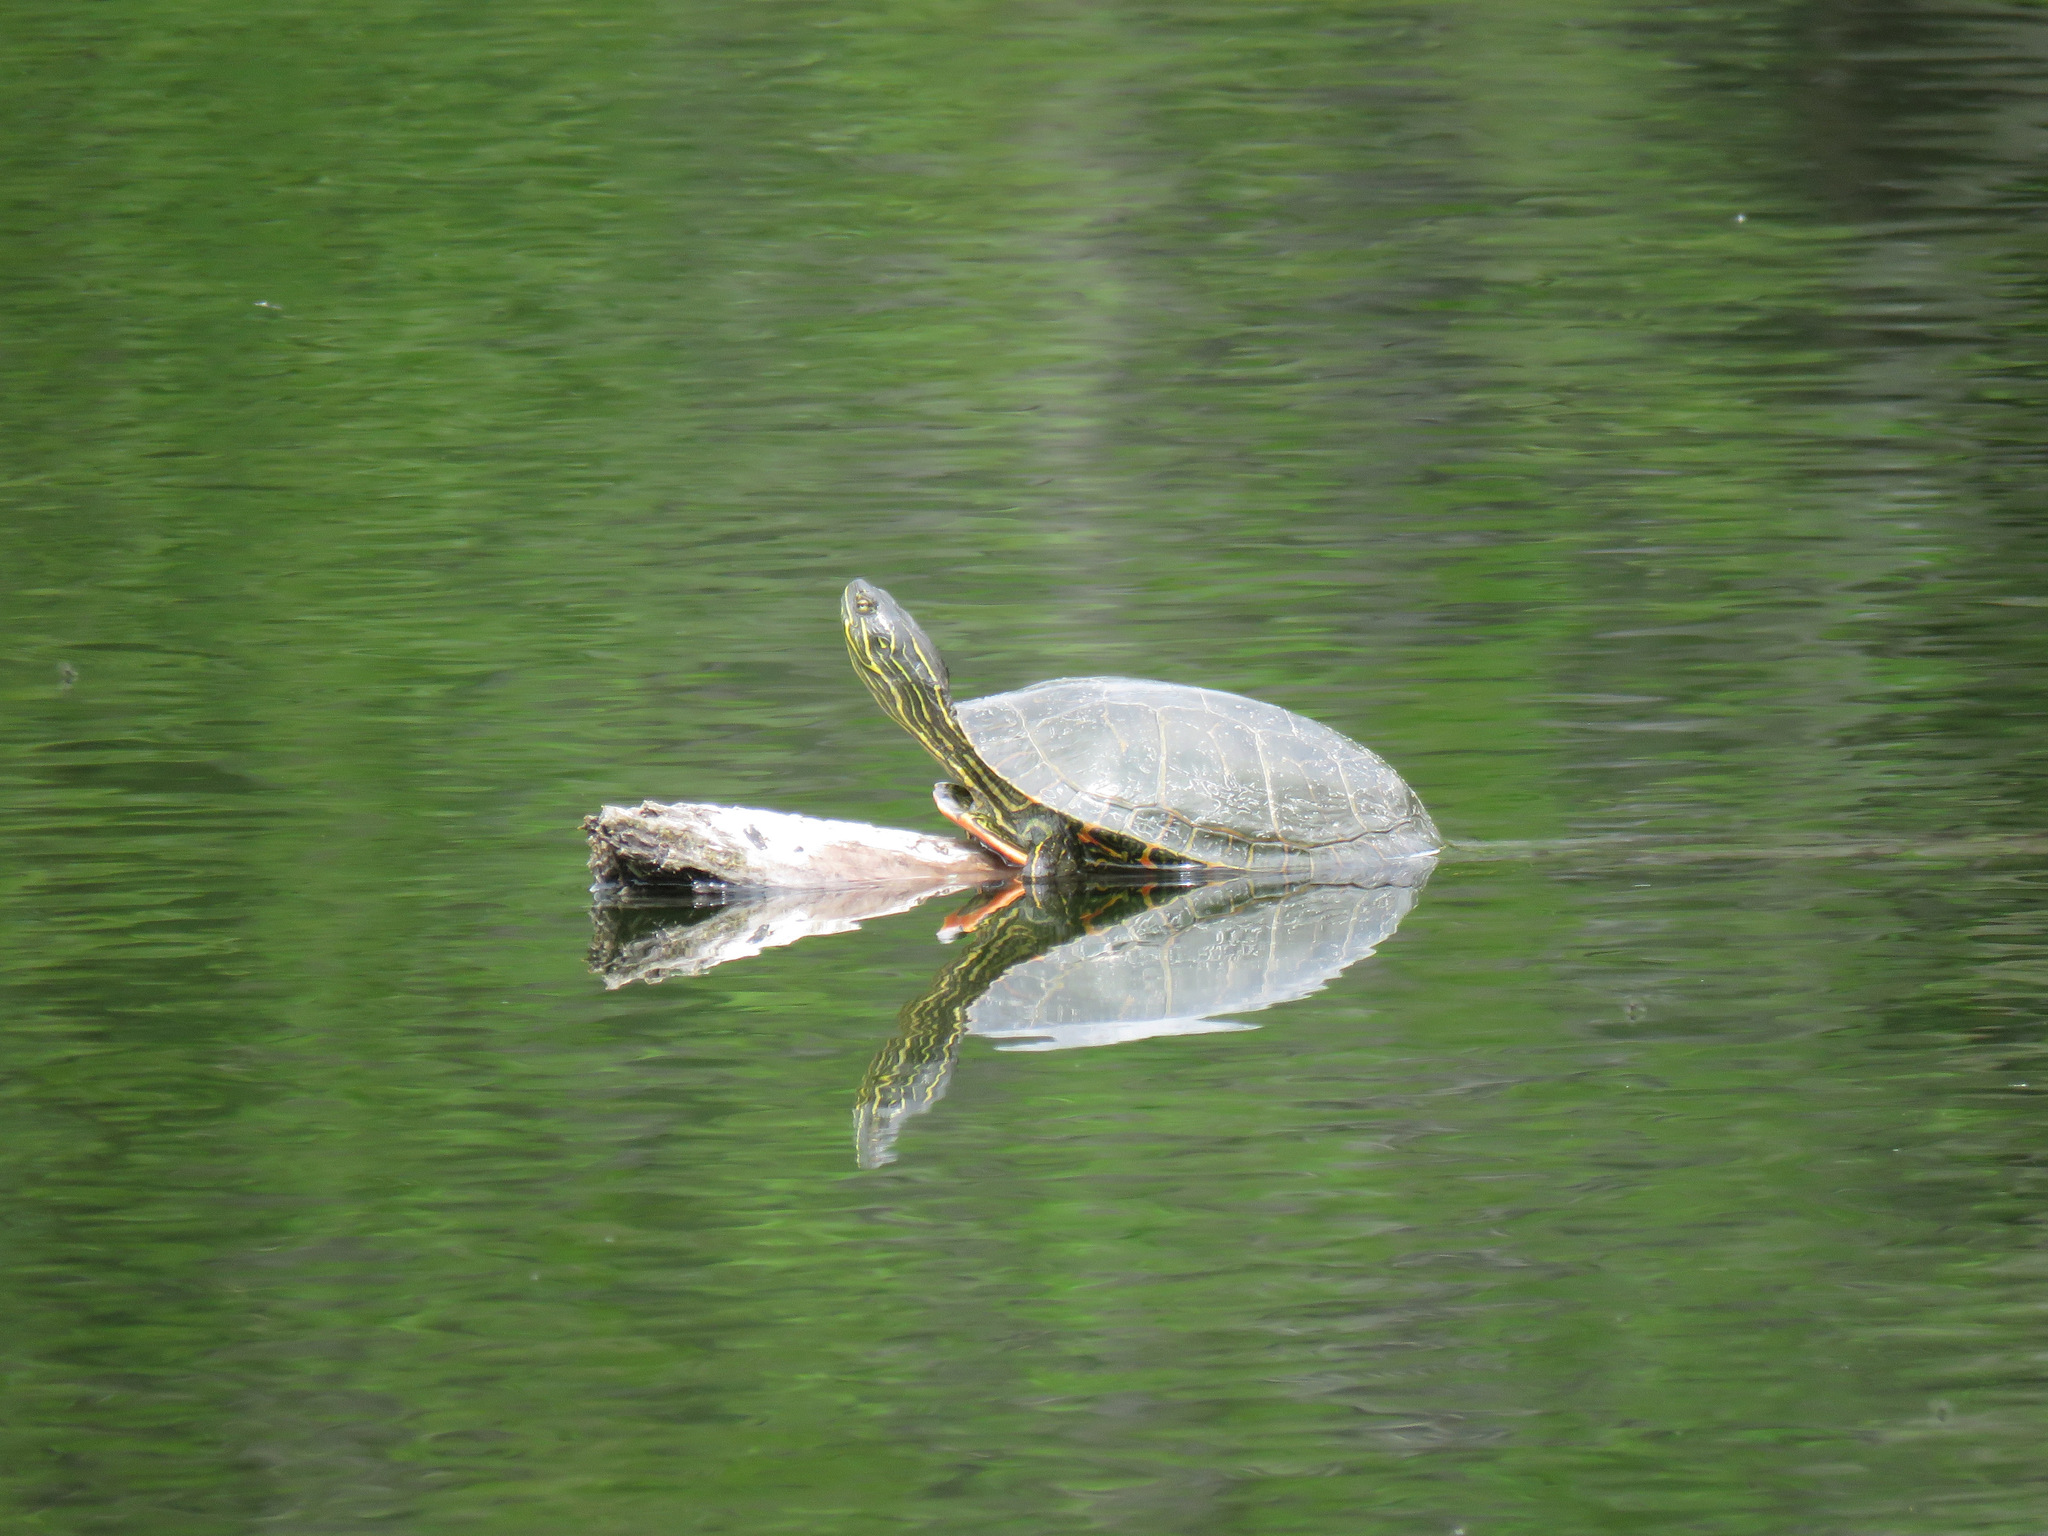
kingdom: Animalia
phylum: Chordata
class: Testudines
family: Emydidae
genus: Chrysemys
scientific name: Chrysemys picta
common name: Painted turtle
